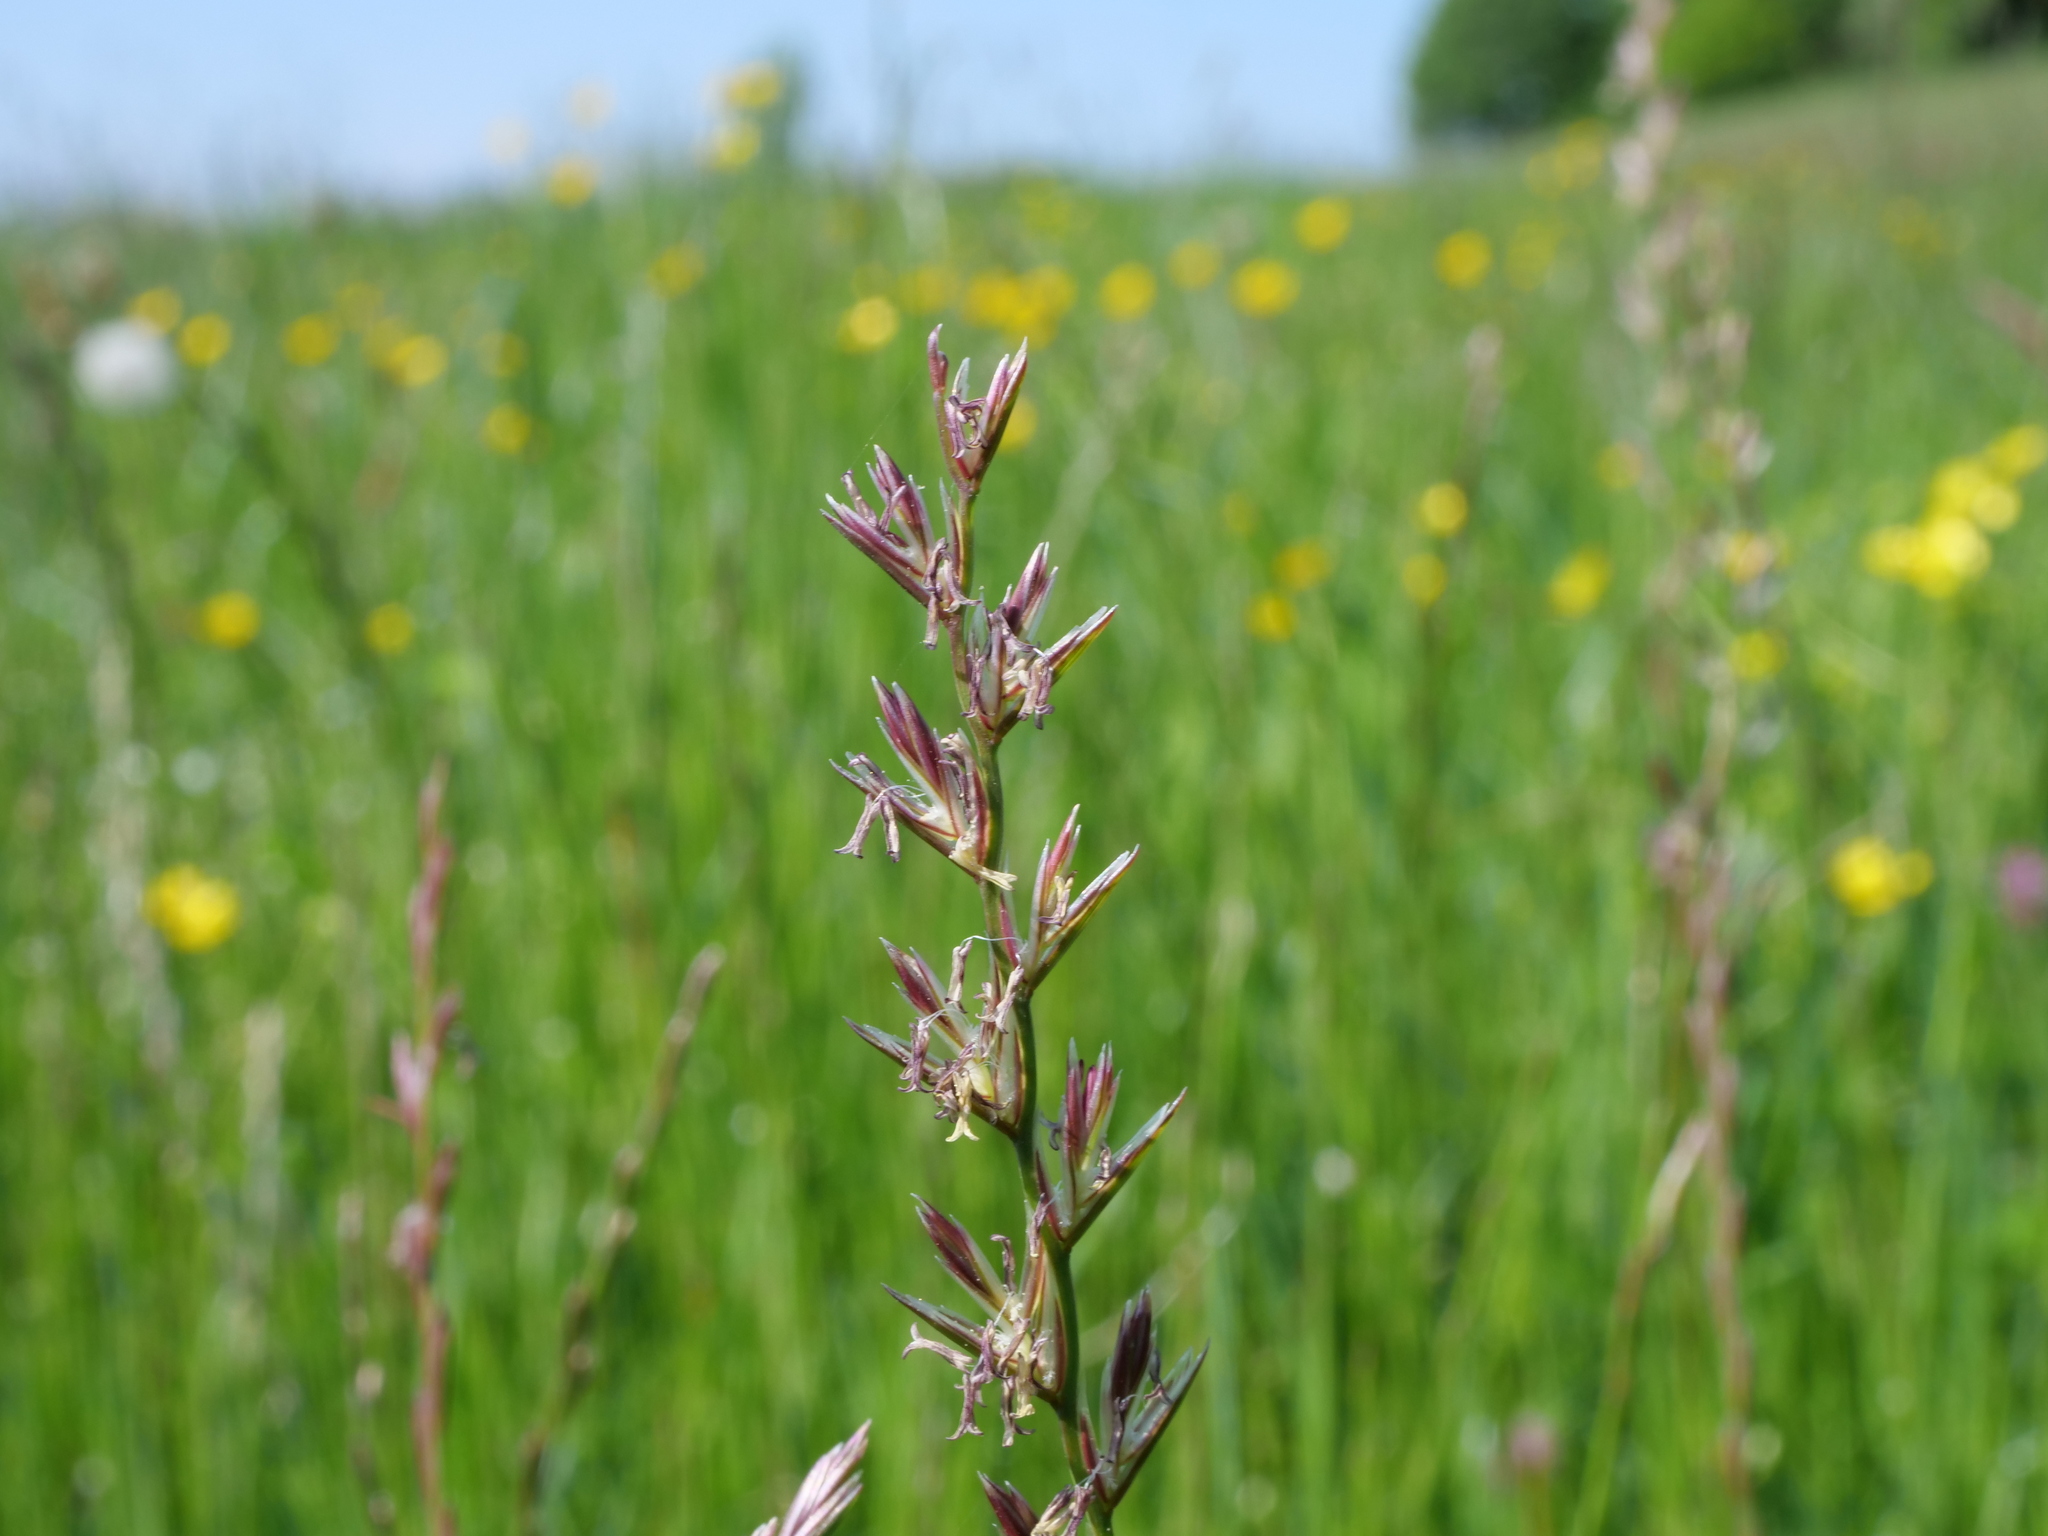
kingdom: Plantae
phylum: Tracheophyta
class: Liliopsida
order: Poales
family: Poaceae
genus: Lolium
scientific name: Lolium perenne
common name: Perennial ryegrass
